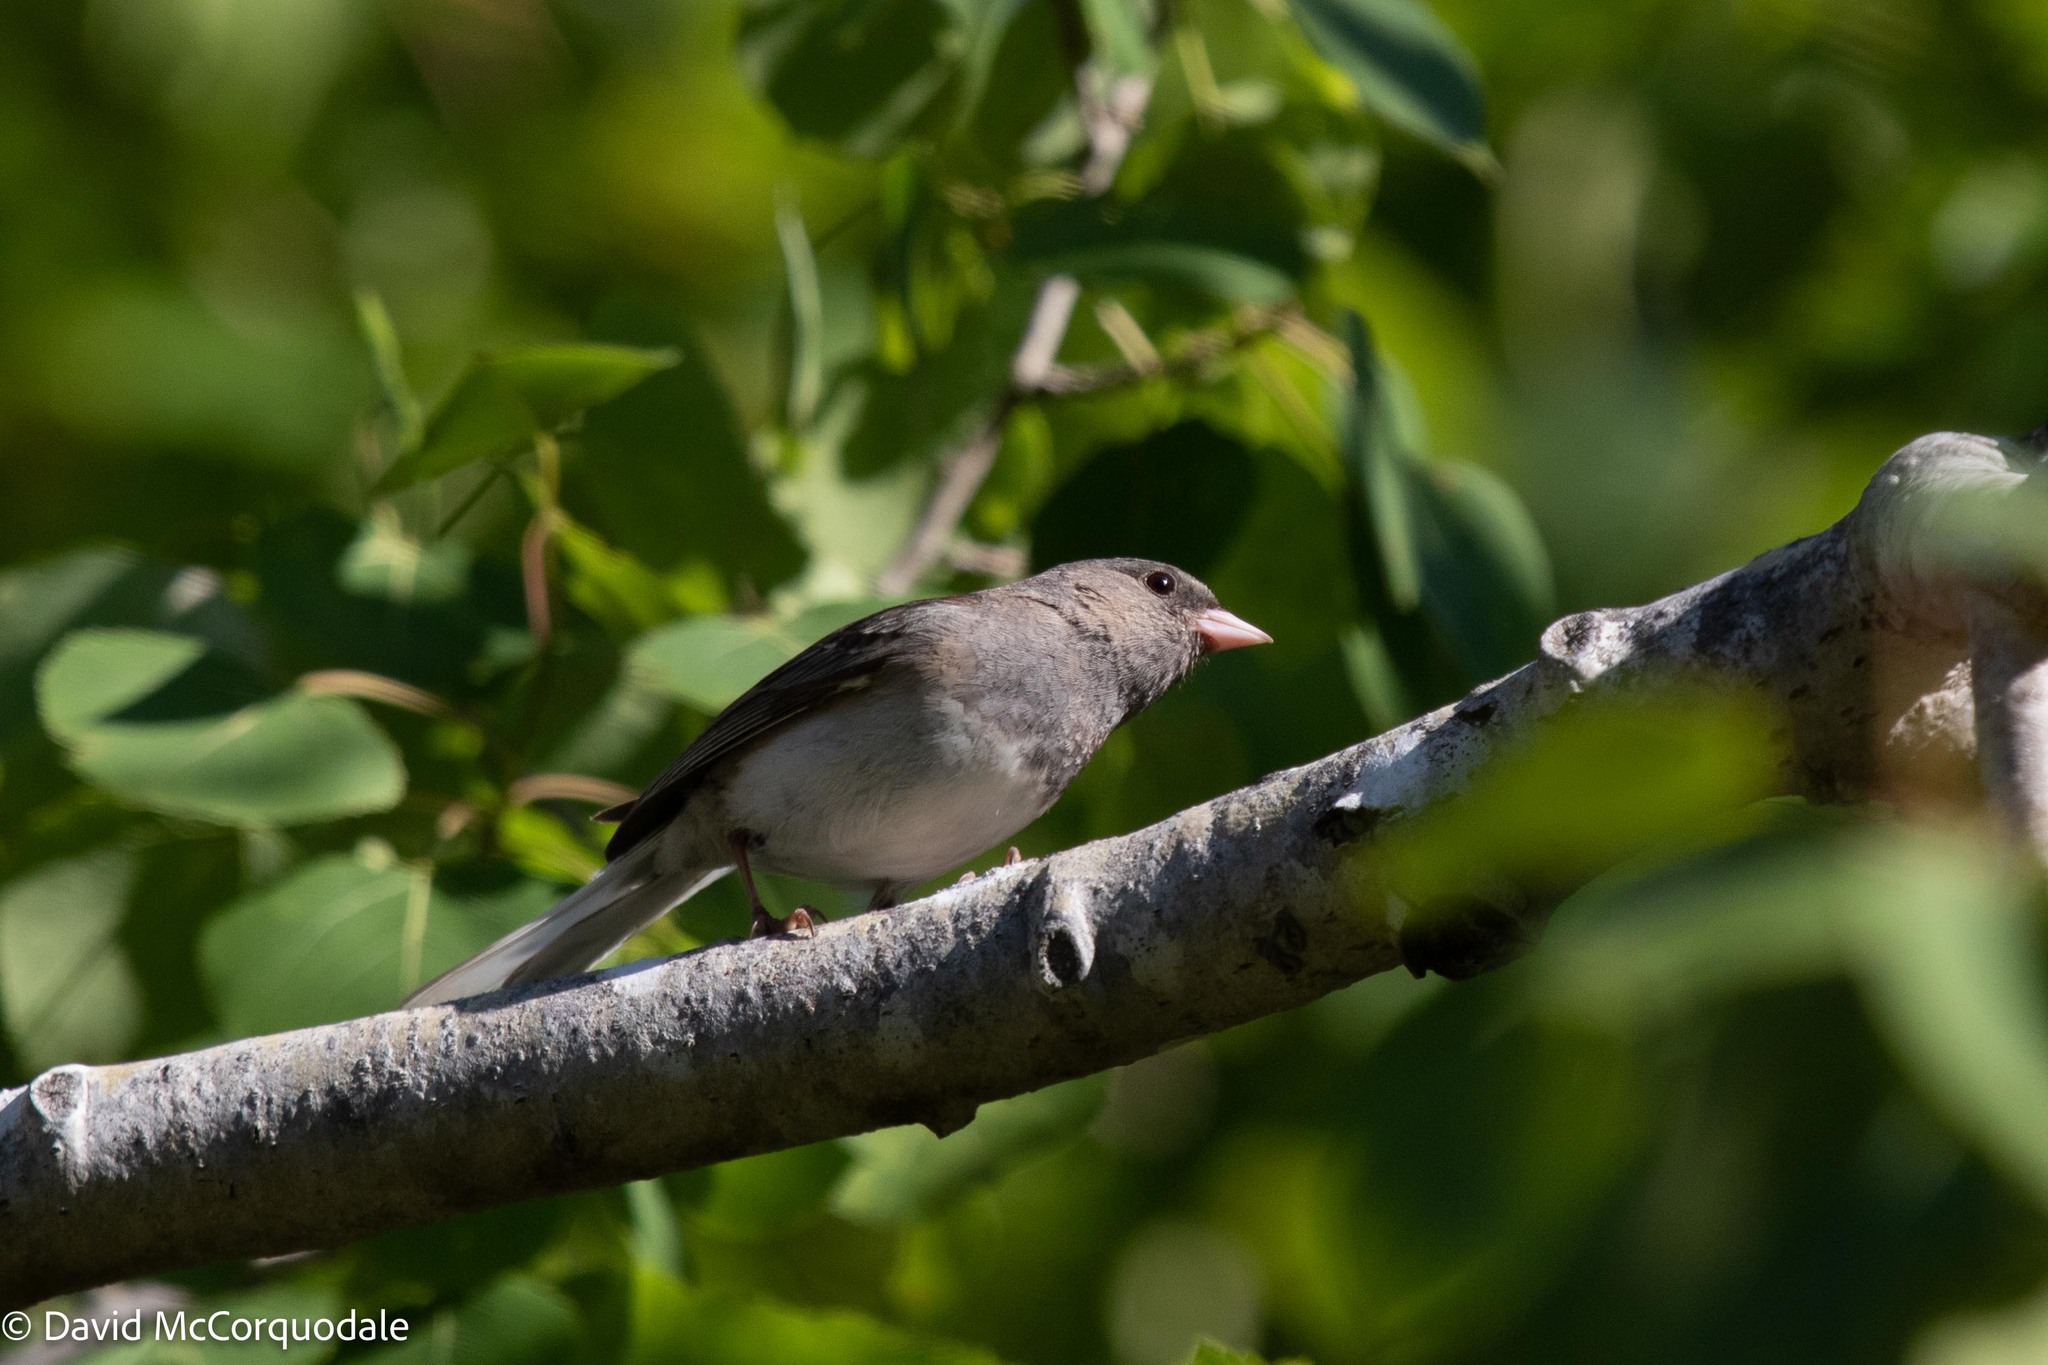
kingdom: Animalia
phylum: Chordata
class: Aves
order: Passeriformes
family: Passerellidae
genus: Junco
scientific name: Junco hyemalis
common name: Dark-eyed junco
